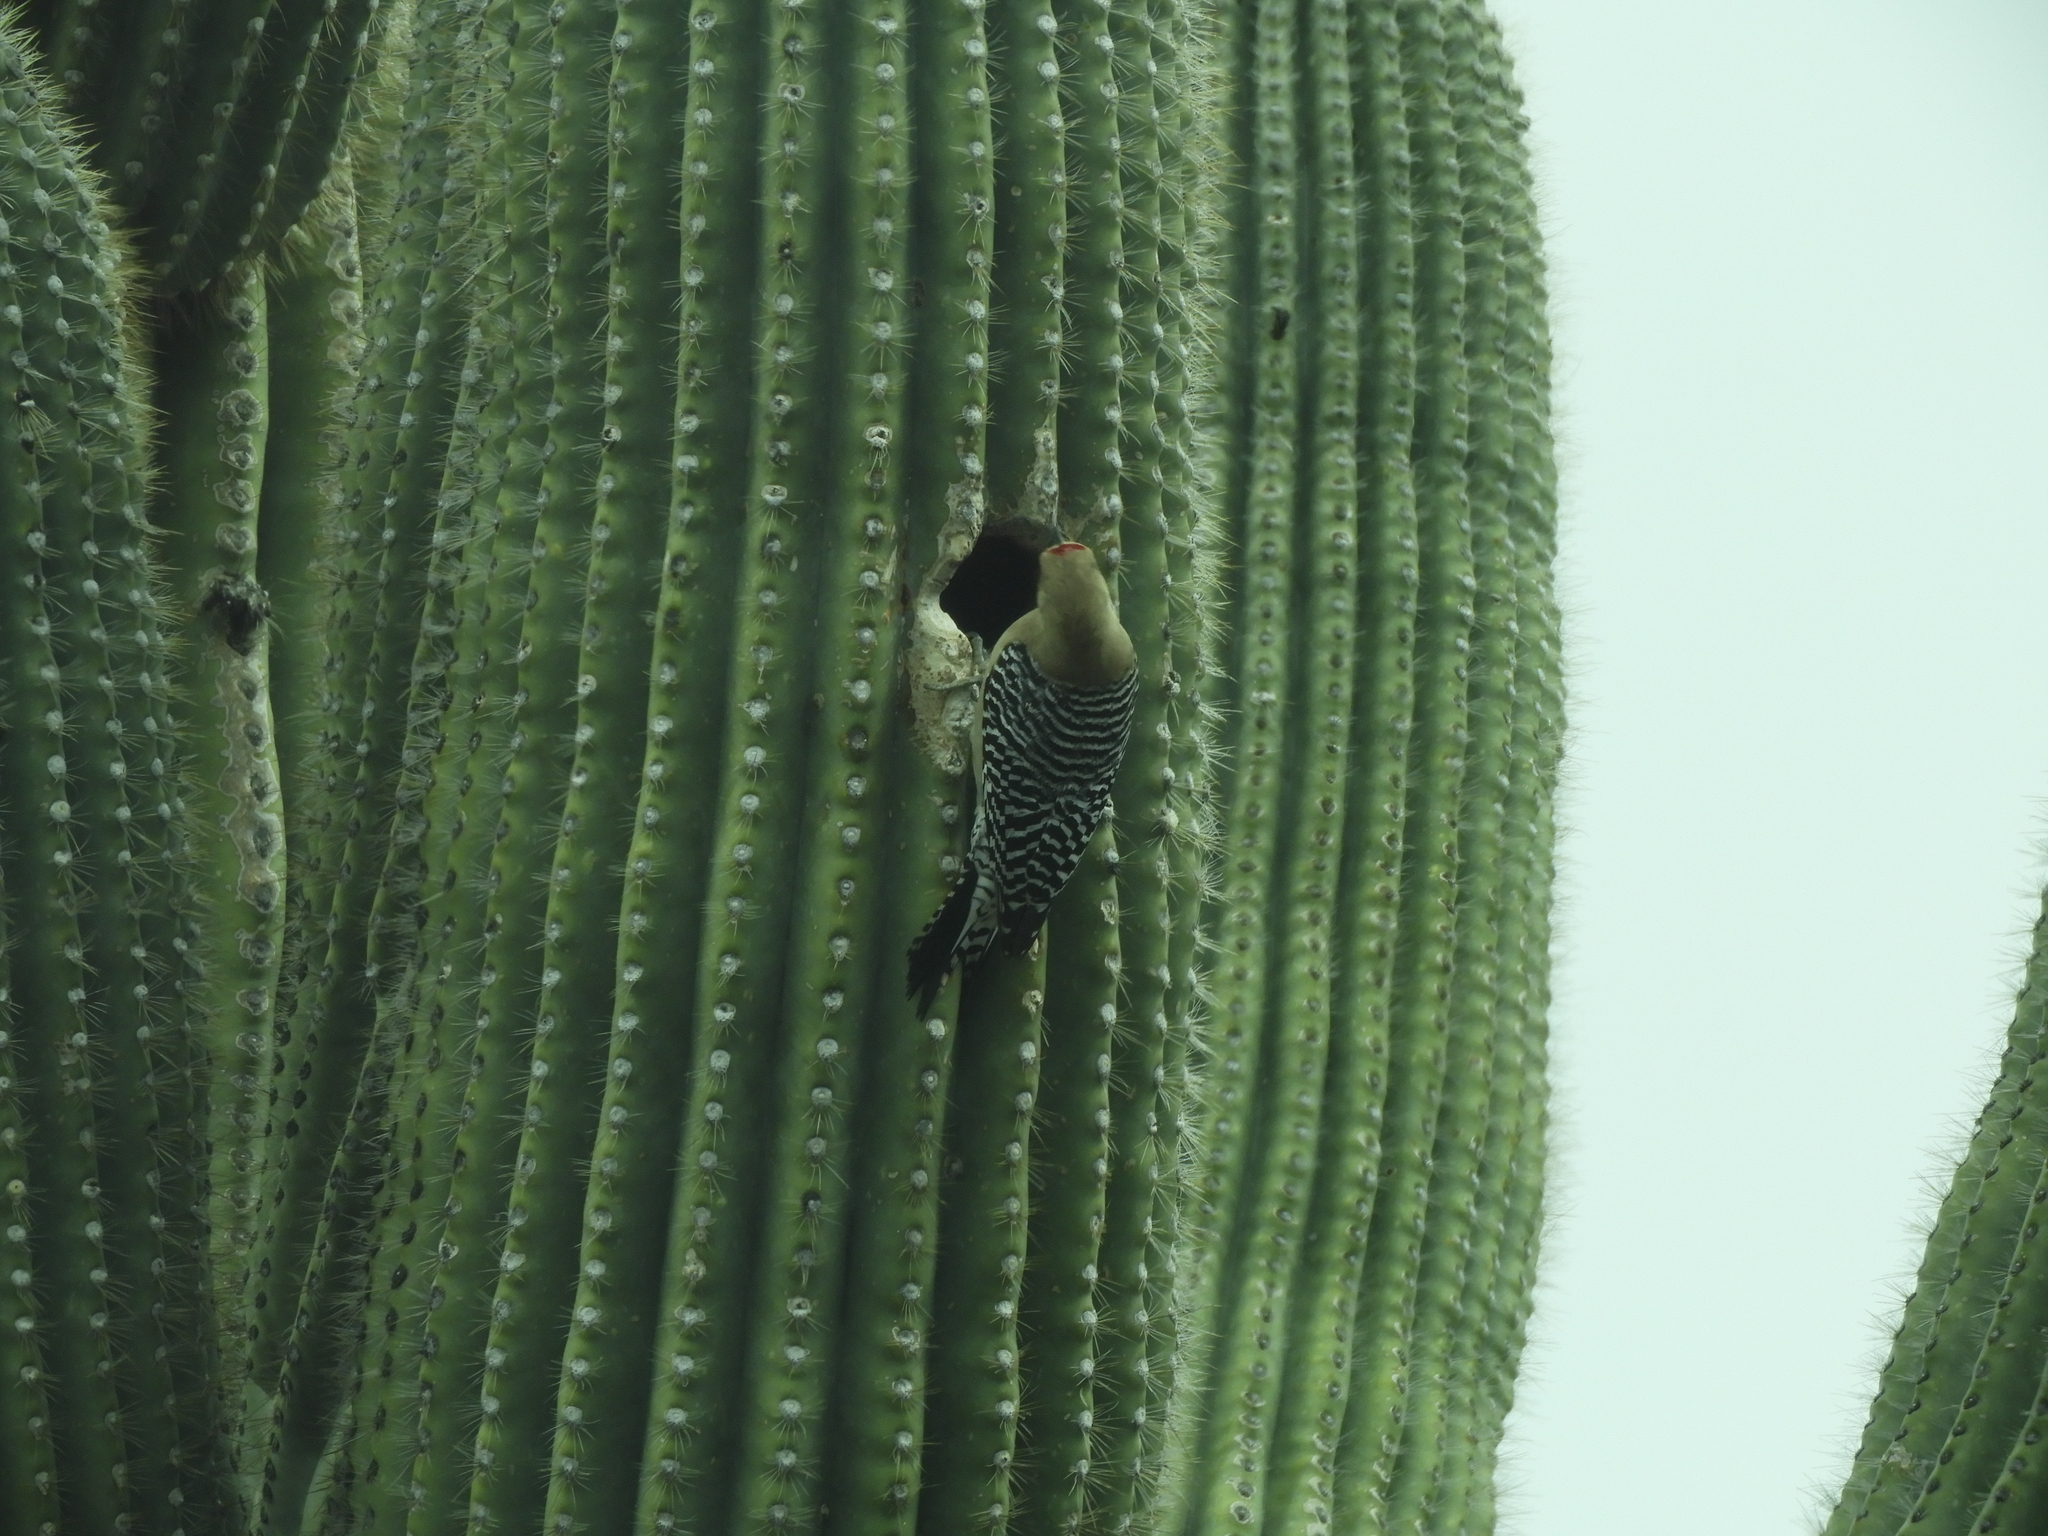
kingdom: Animalia
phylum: Chordata
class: Aves
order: Piciformes
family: Picidae
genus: Melanerpes
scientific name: Melanerpes uropygialis
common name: Gila woodpecker
